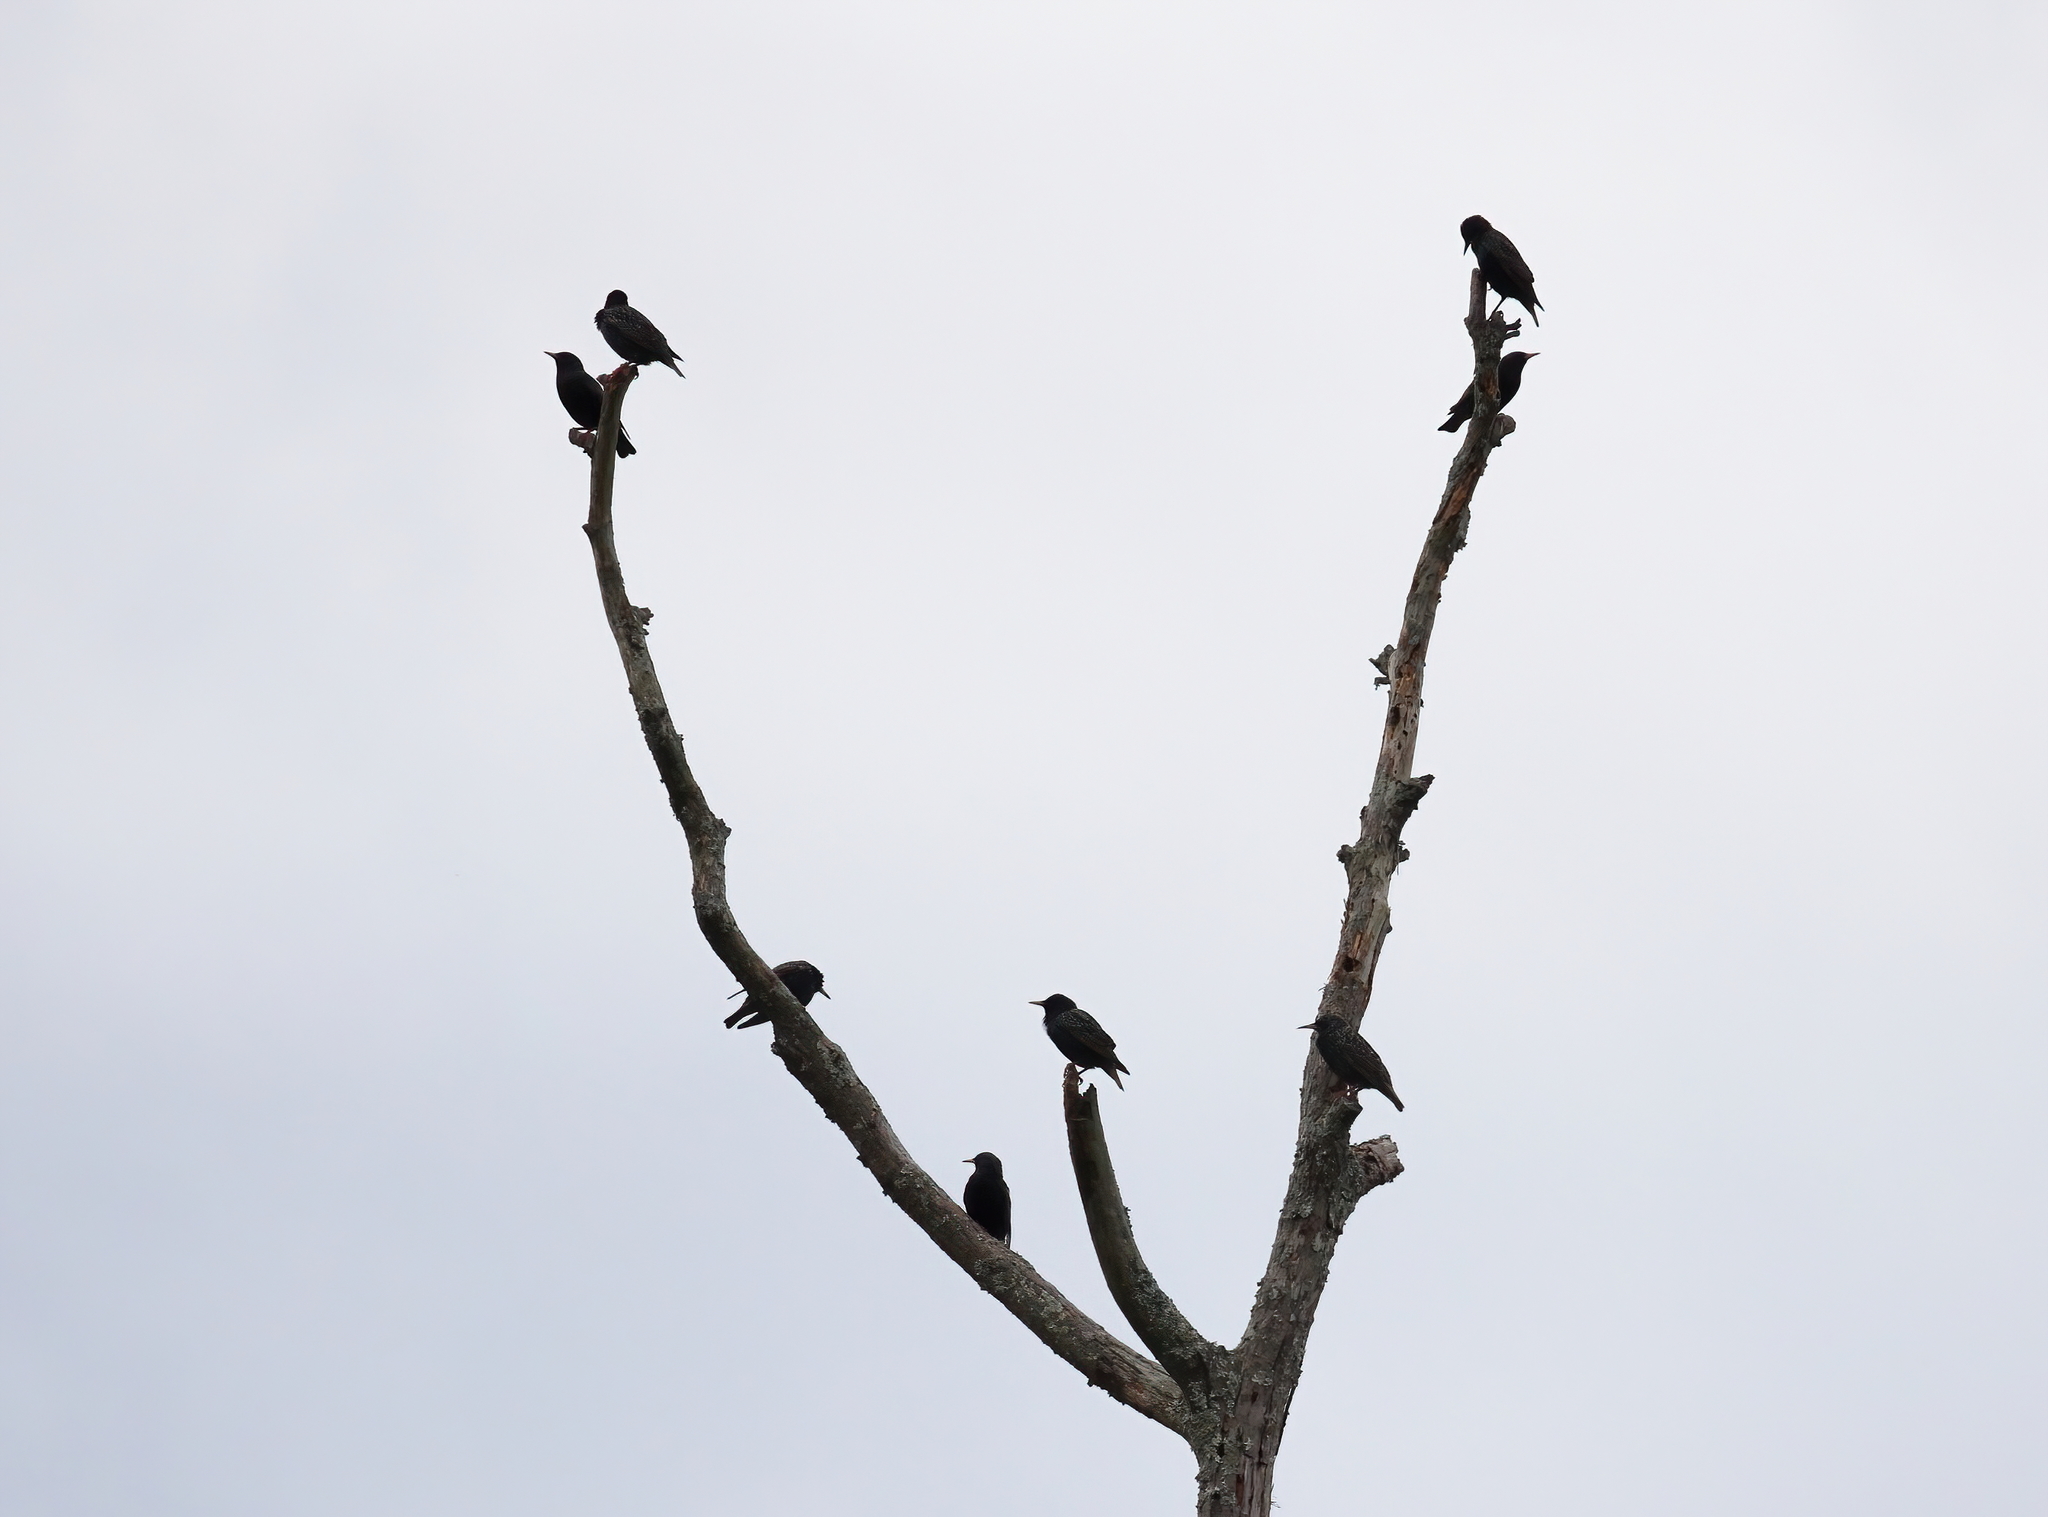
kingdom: Animalia
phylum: Chordata
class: Aves
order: Passeriformes
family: Sturnidae
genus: Sturnus
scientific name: Sturnus vulgaris
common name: Common starling
